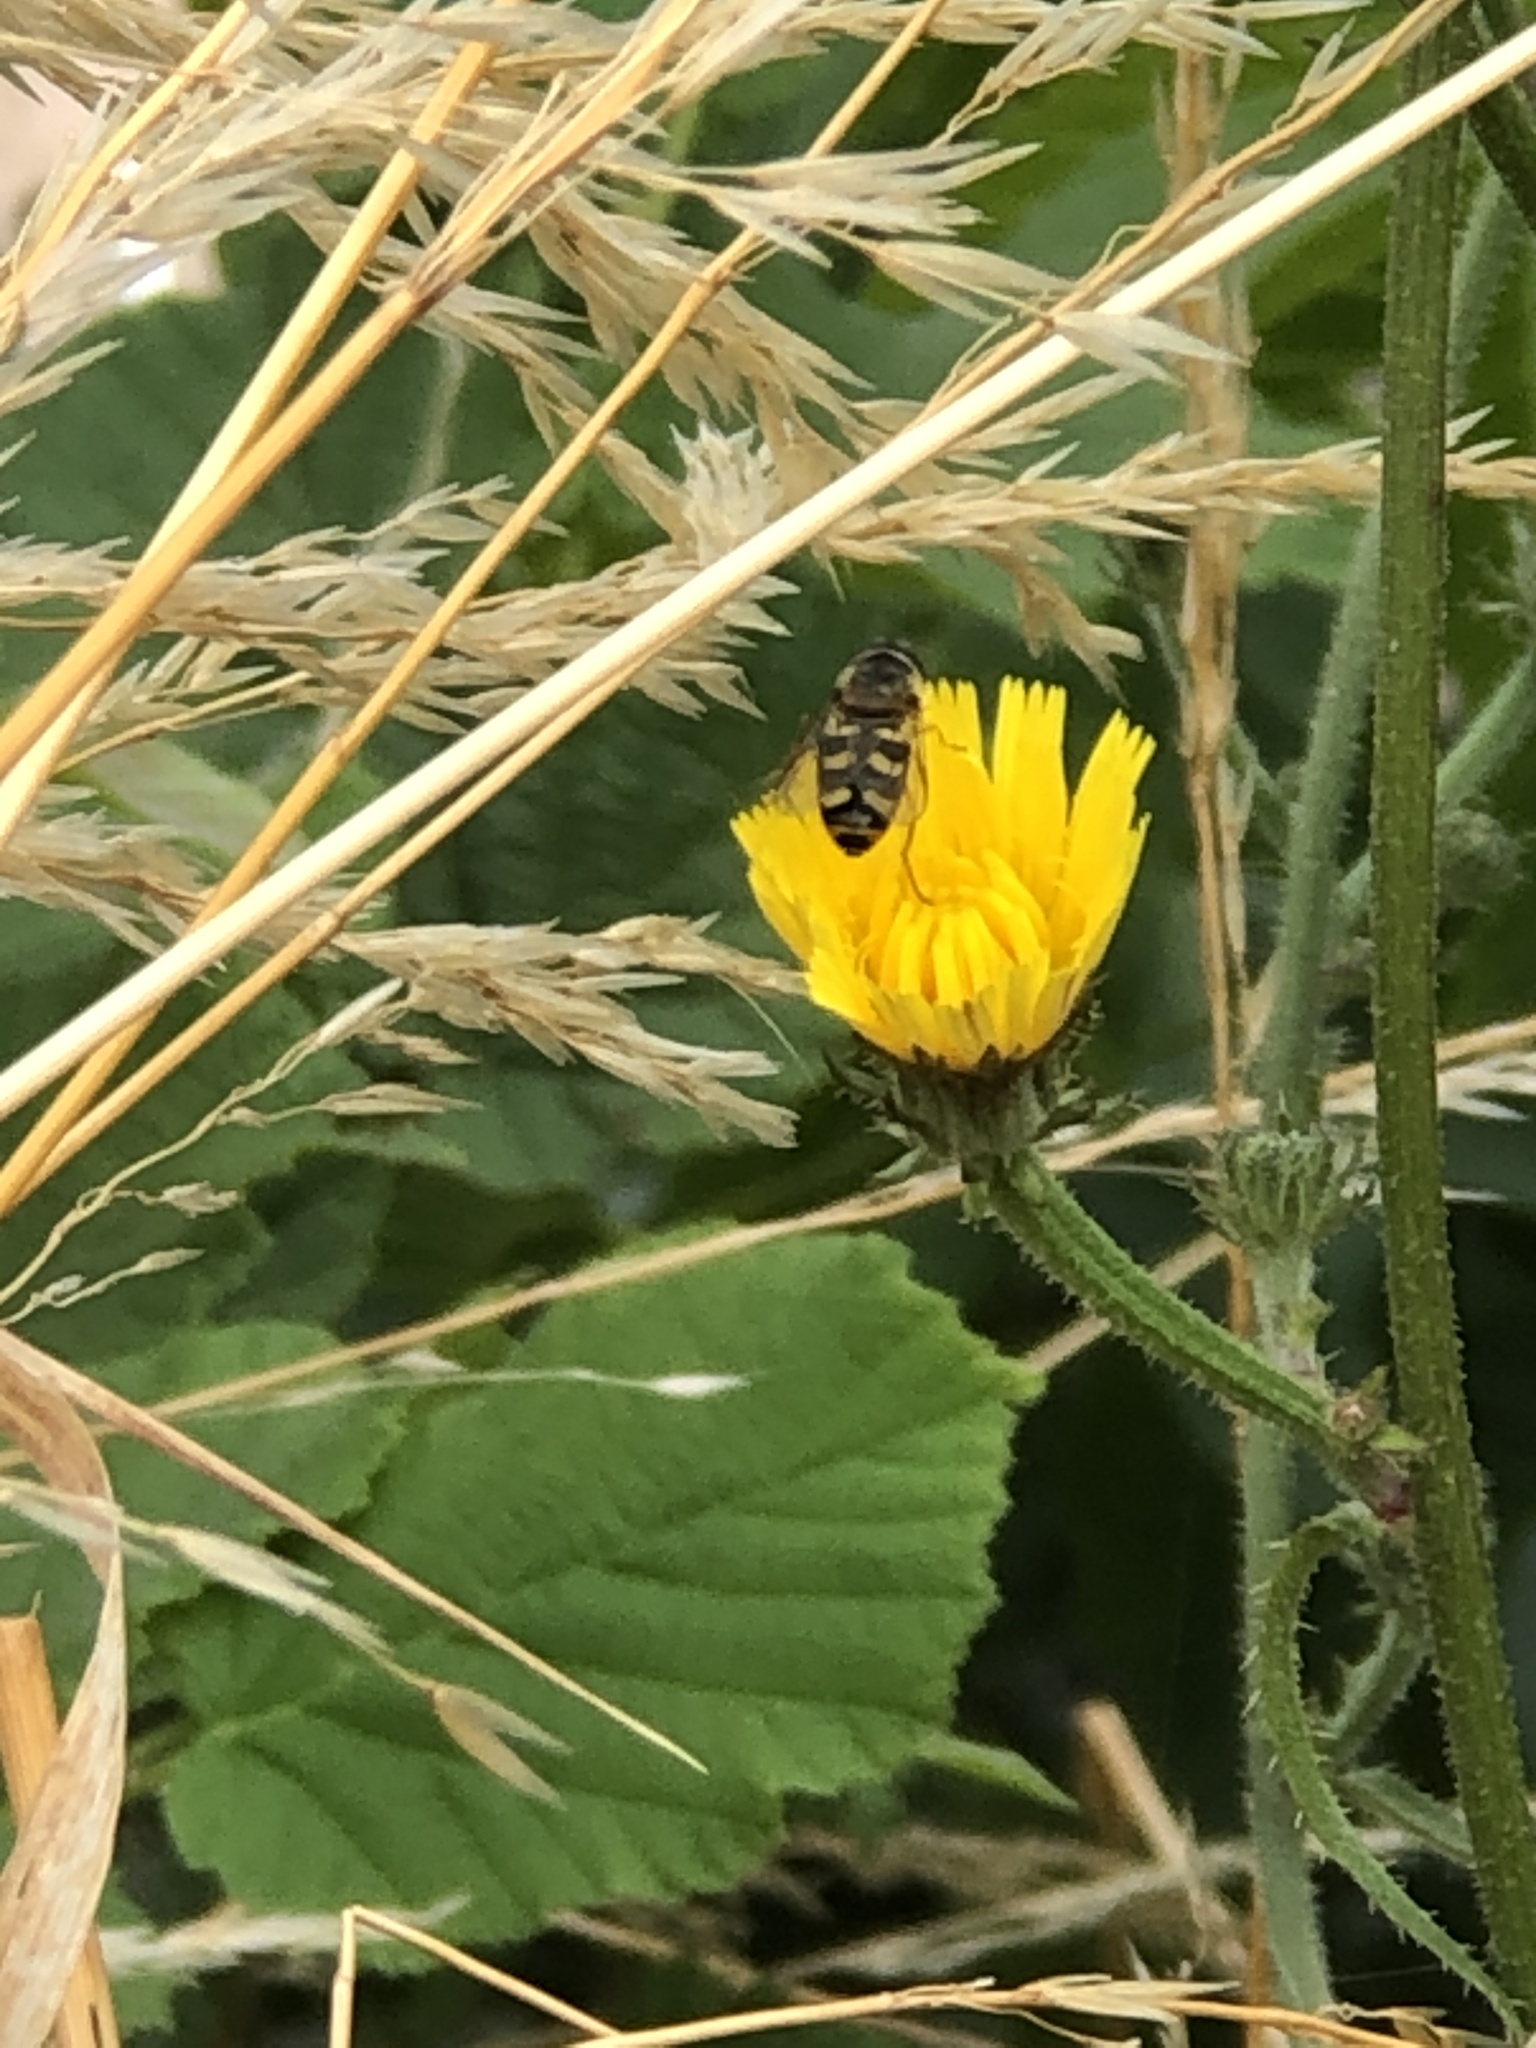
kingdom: Animalia
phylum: Arthropoda
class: Insecta
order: Diptera
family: Syrphidae
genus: Eupeodes
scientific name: Eupeodes
